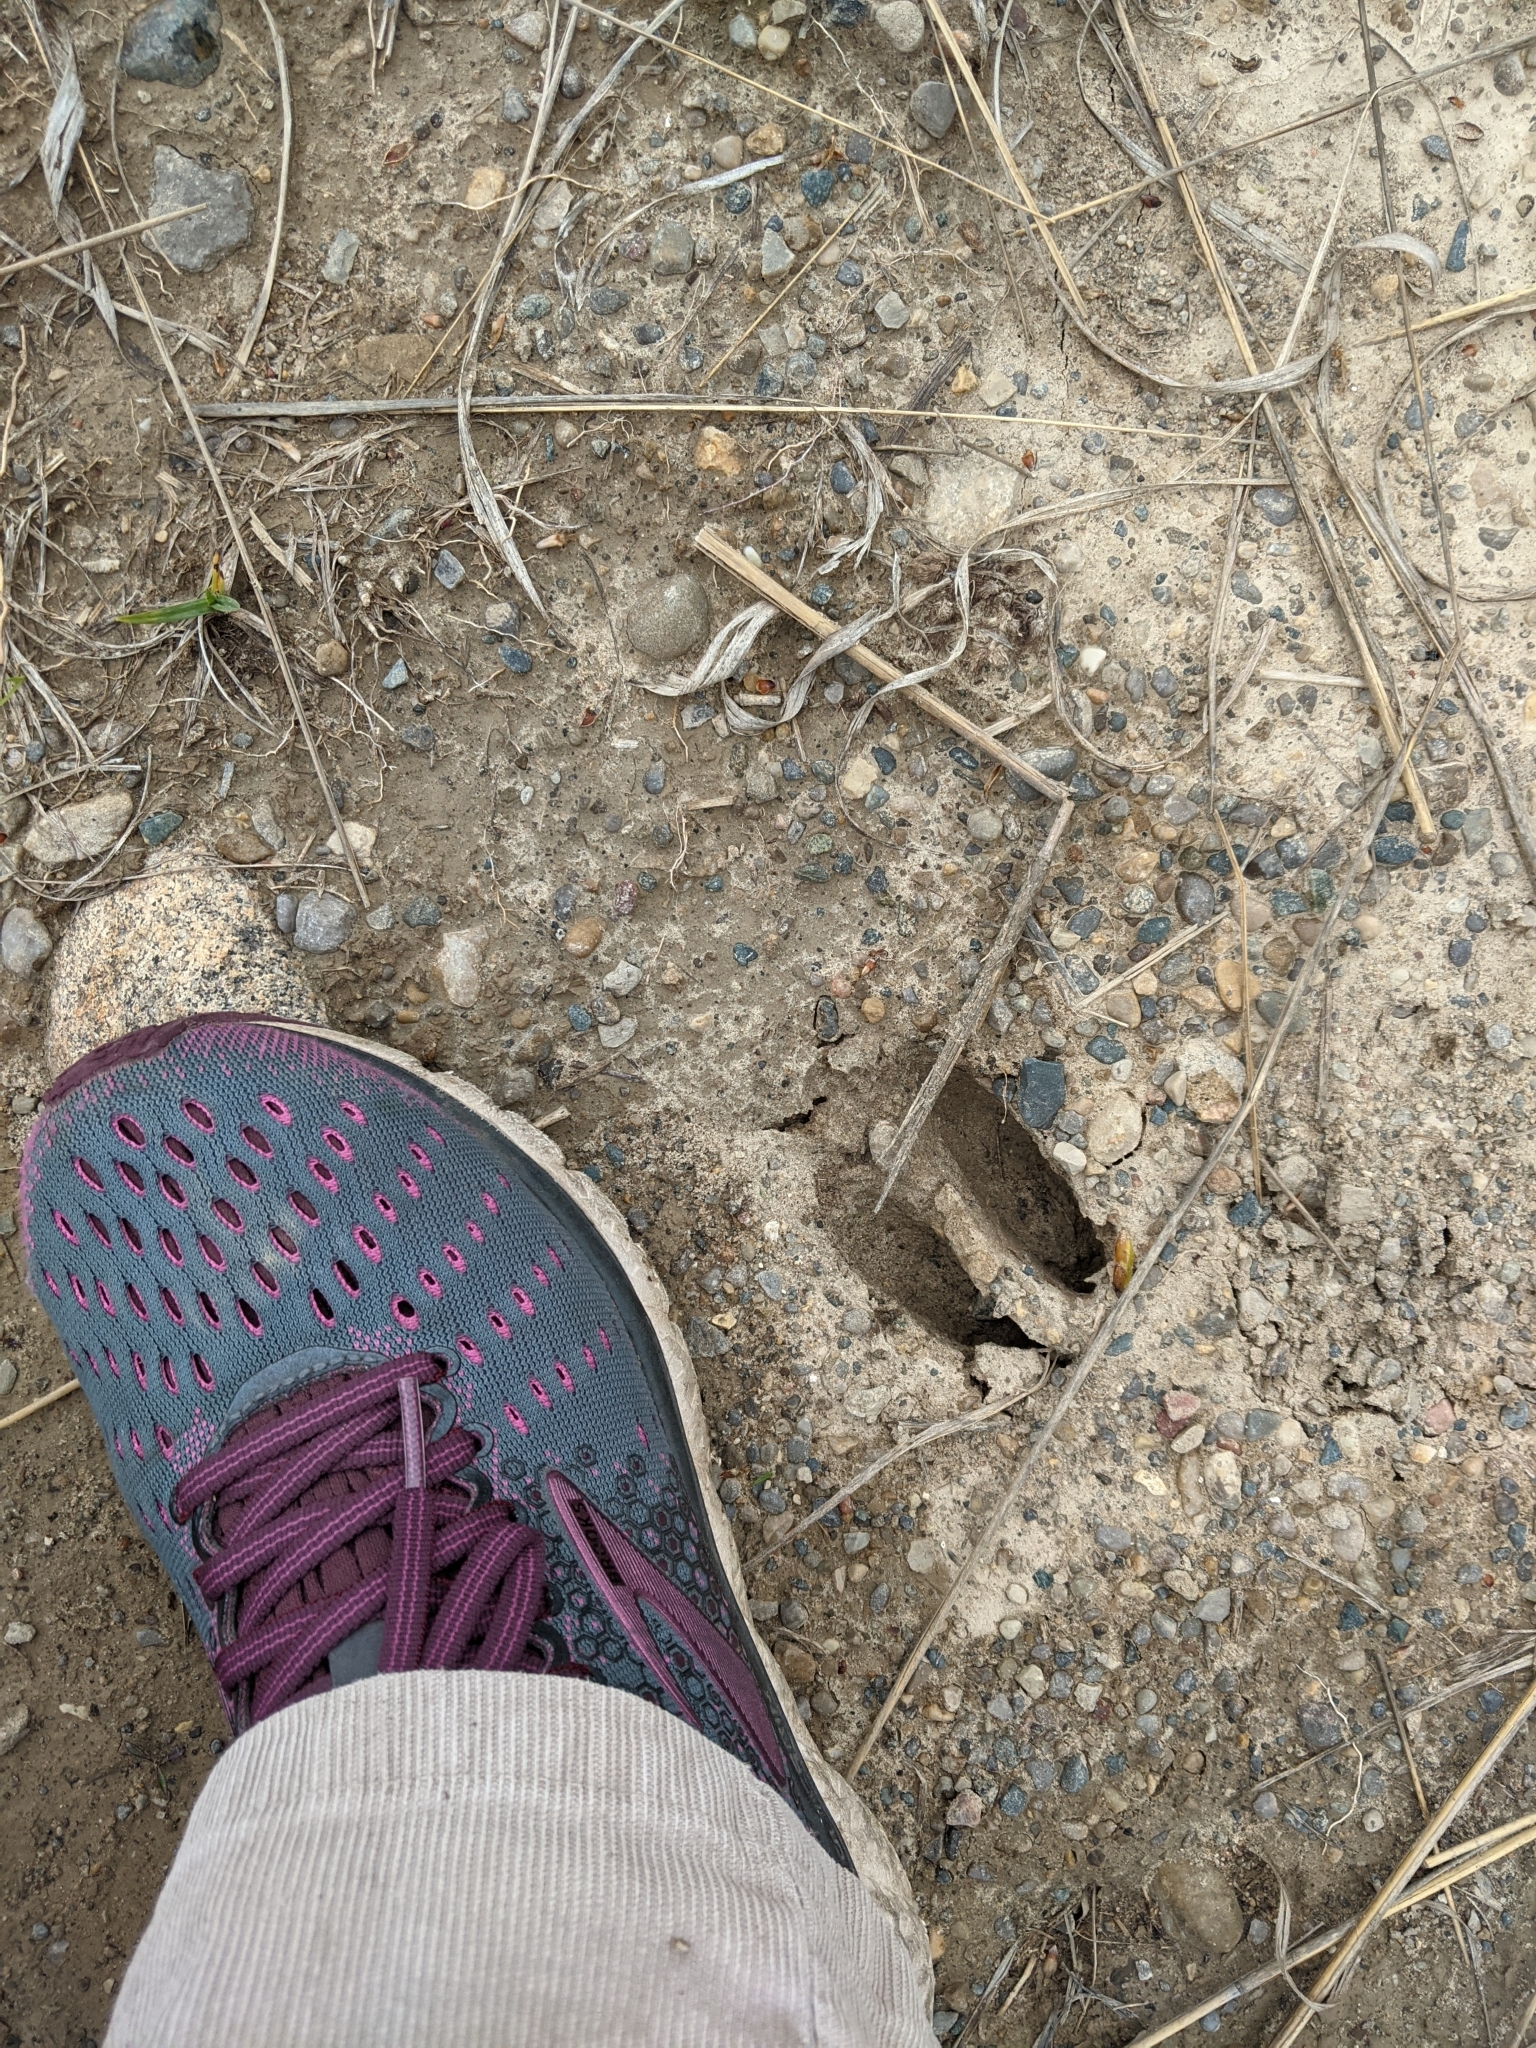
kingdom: Animalia
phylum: Chordata
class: Mammalia
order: Artiodactyla
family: Cervidae
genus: Odocoileus
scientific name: Odocoileus virginianus
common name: White-tailed deer
